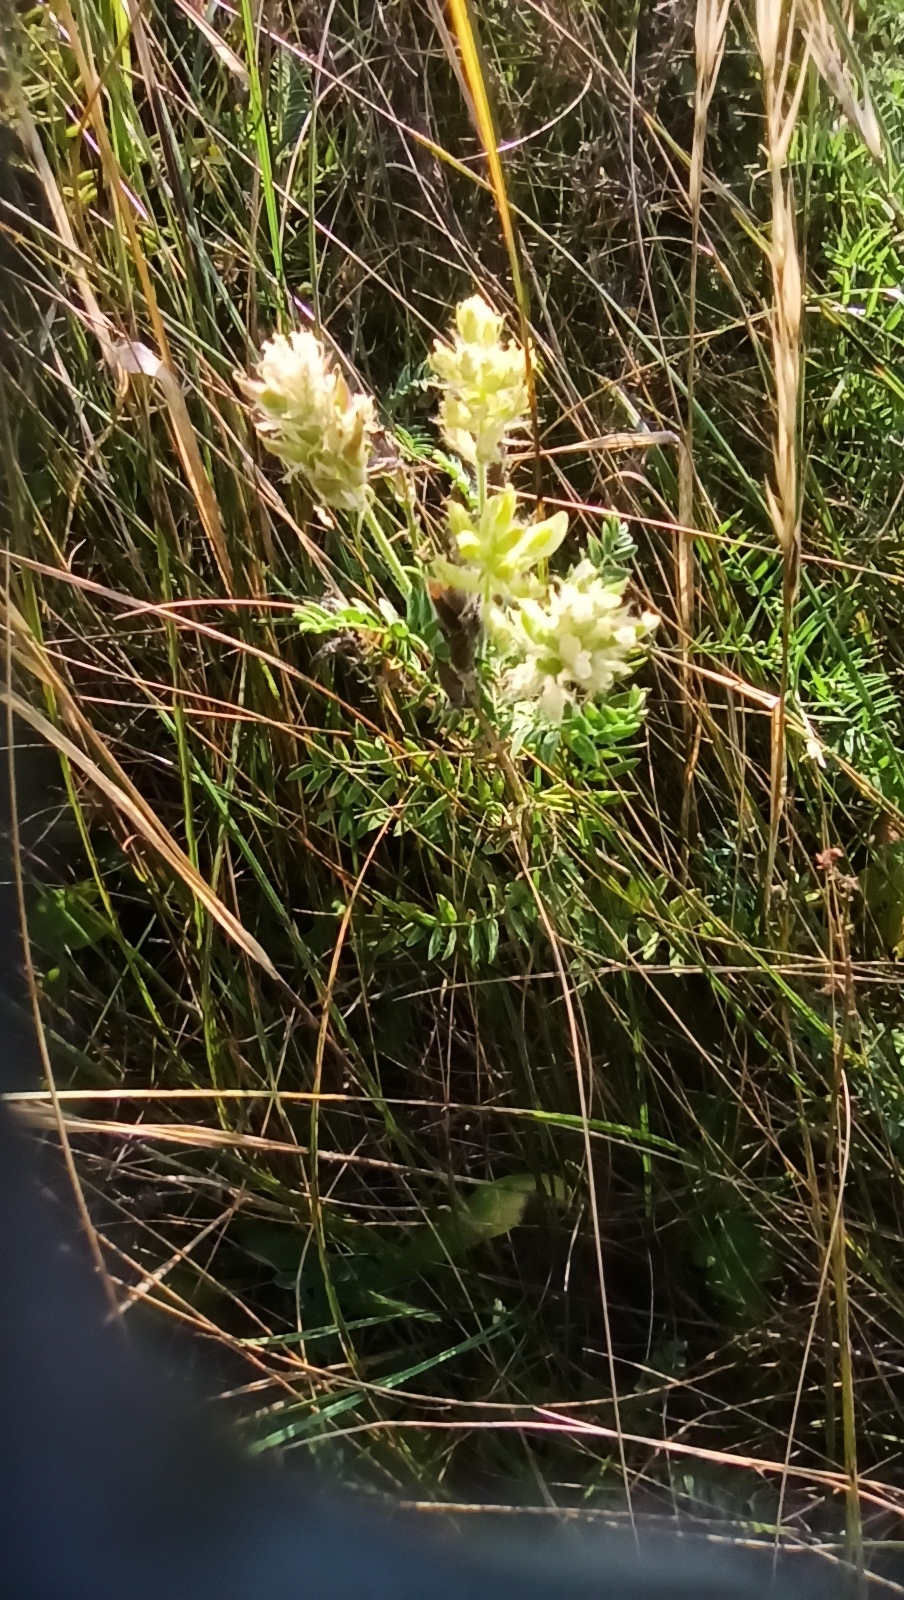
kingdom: Plantae
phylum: Tracheophyta
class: Magnoliopsida
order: Fabales
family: Fabaceae
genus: Oxytropis
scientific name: Oxytropis pilosa
